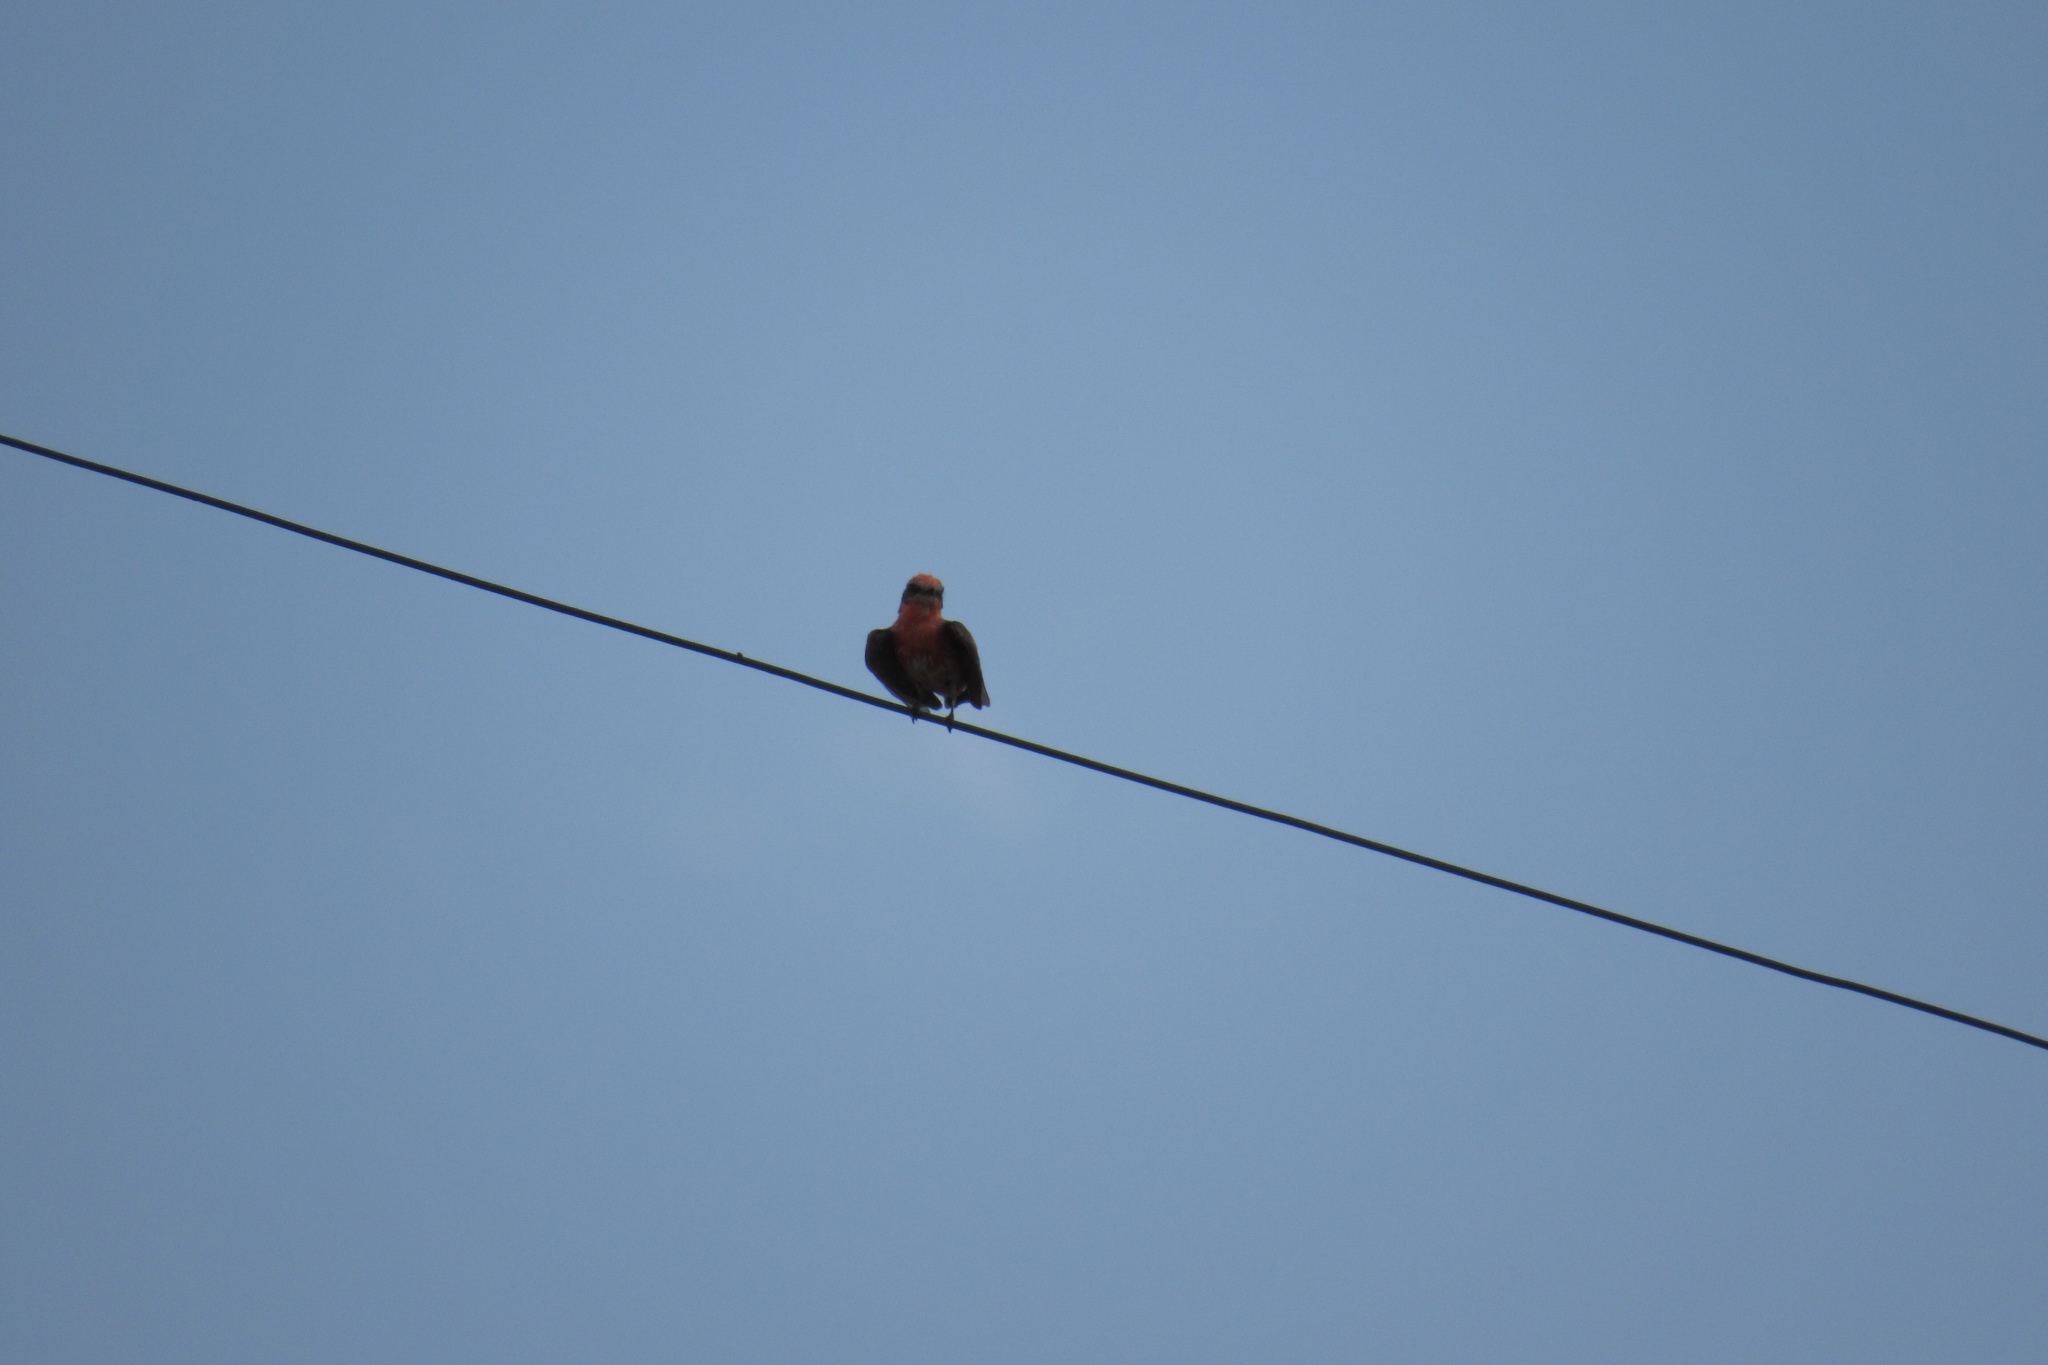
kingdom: Animalia
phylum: Chordata
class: Aves
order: Passeriformes
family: Tyrannidae
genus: Pyrocephalus
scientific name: Pyrocephalus rubinus
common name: Vermilion flycatcher
